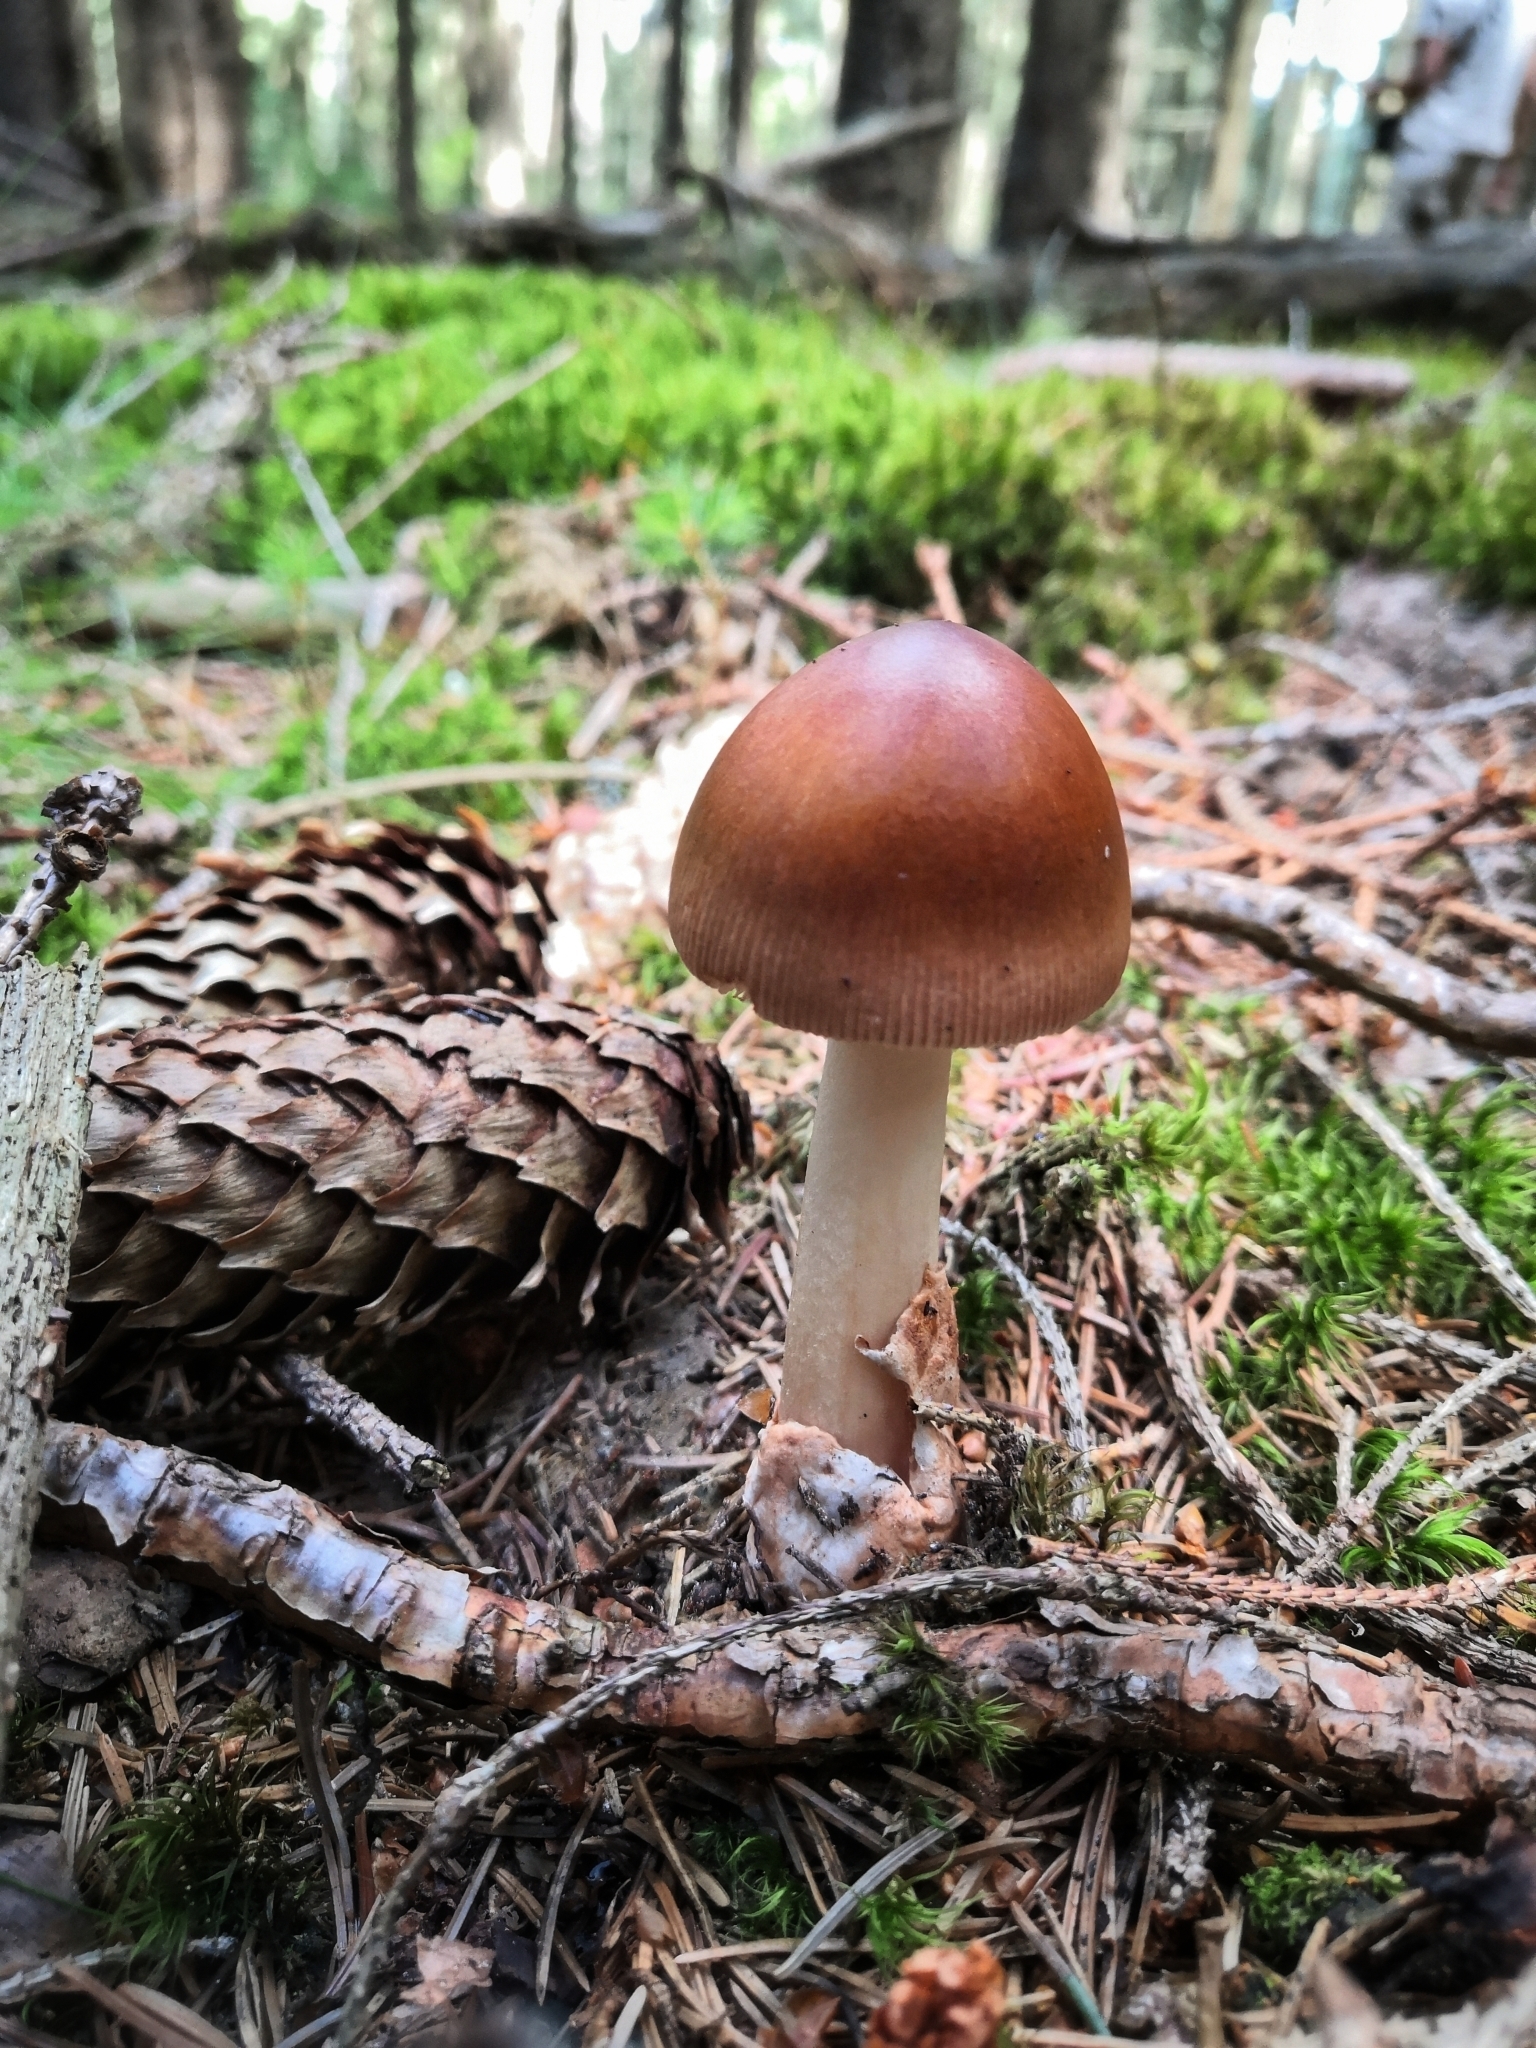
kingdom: Fungi
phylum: Basidiomycota
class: Agaricomycetes
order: Agaricales
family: Amanitaceae
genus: Amanita
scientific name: Amanita fulva
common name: Tawny grisette
